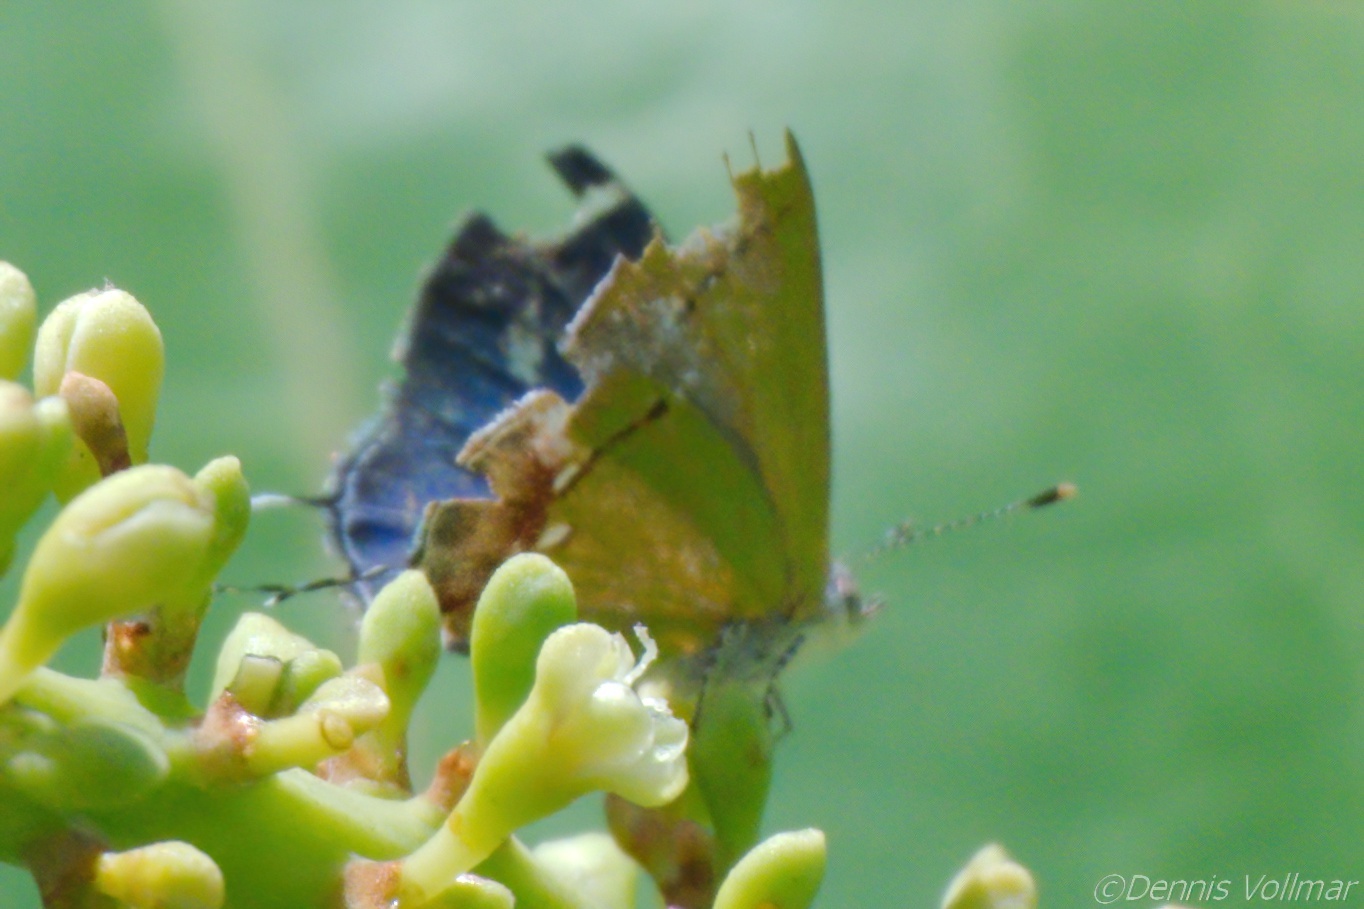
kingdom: Animalia
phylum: Arthropoda
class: Insecta
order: Lepidoptera
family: Lycaenidae
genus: Thecla
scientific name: Thecla maesites
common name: Verde azul hairstreak
